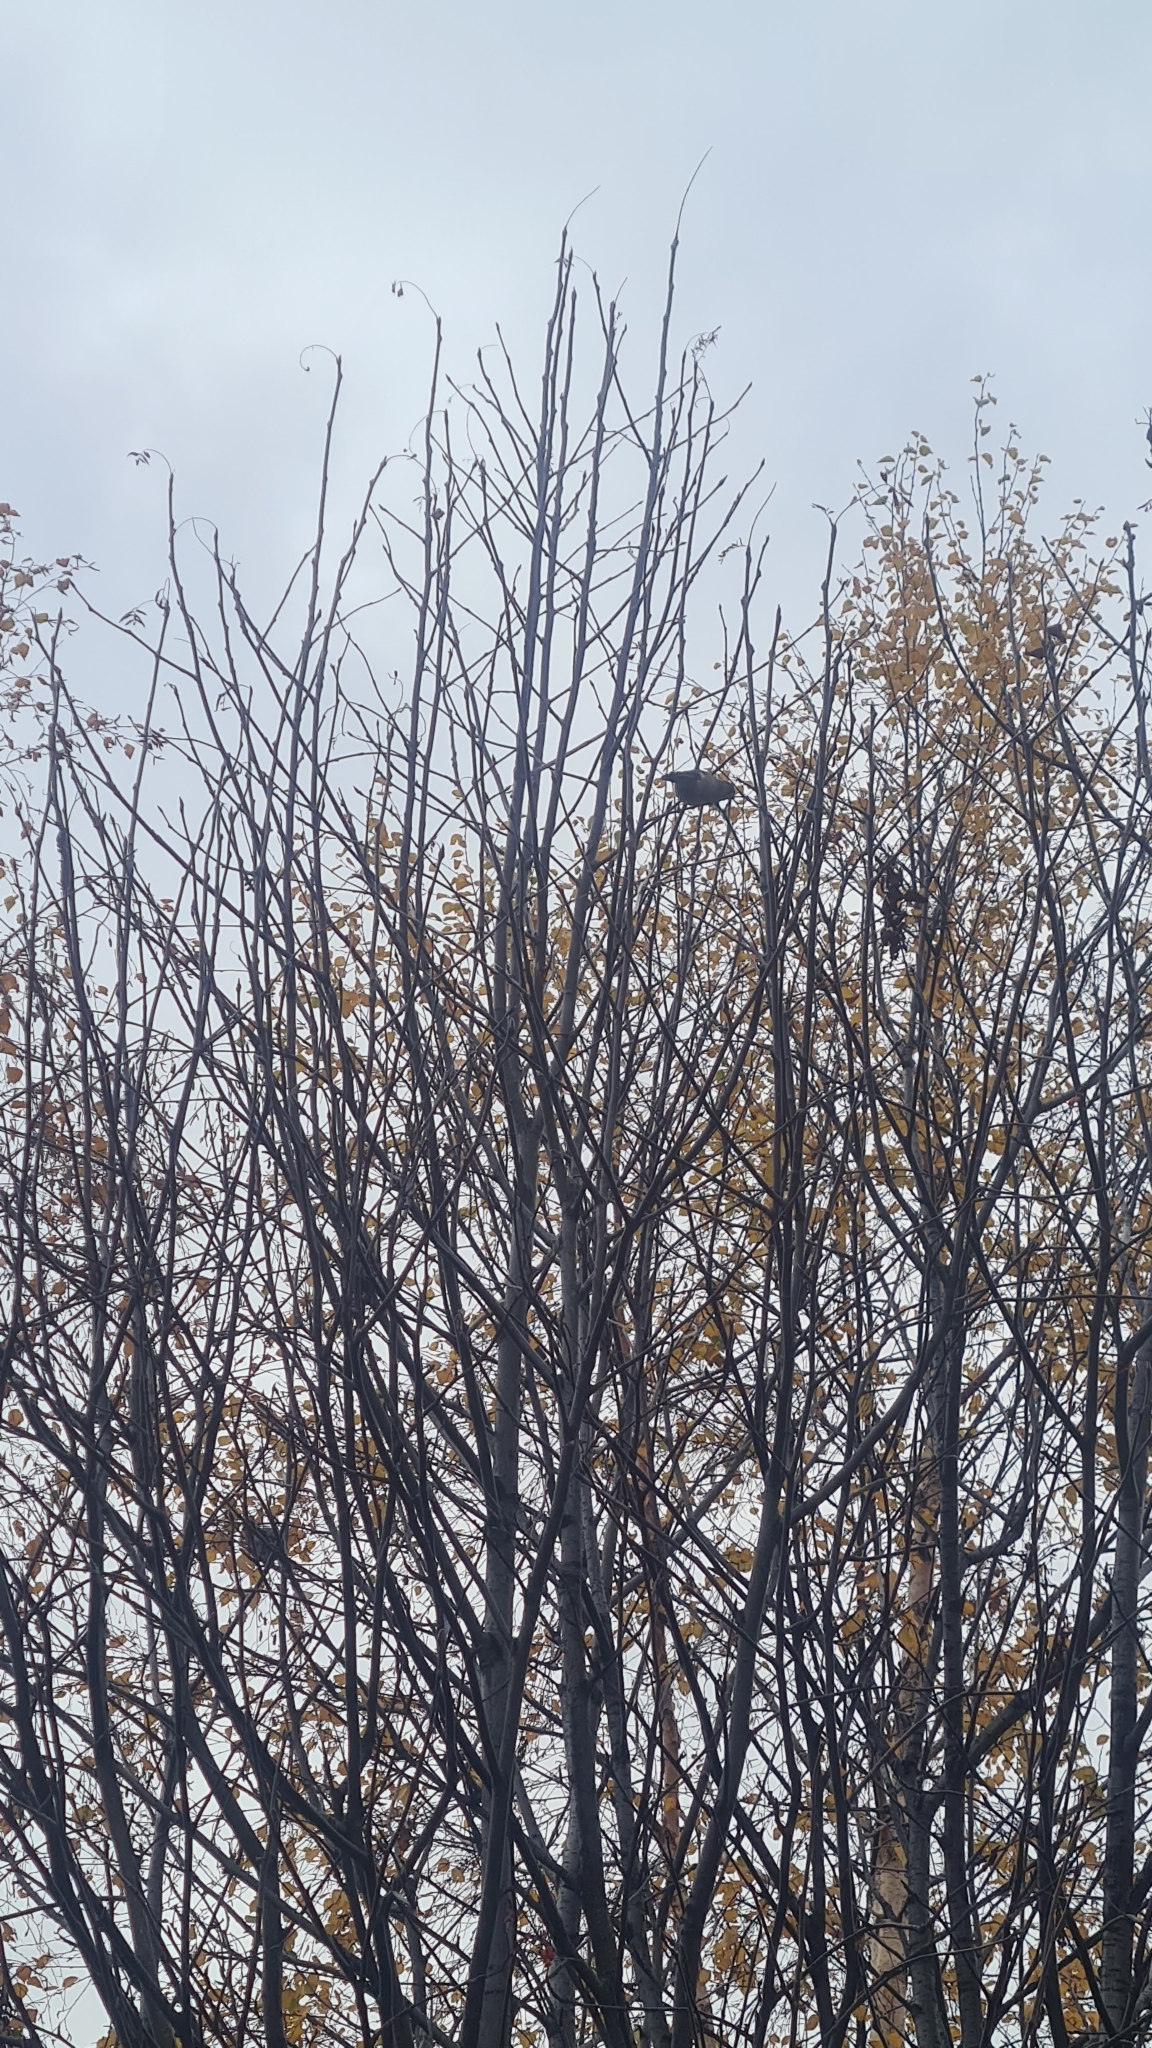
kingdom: Animalia
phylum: Chordata
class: Aves
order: Passeriformes
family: Fringillidae
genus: Pyrrhula
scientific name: Pyrrhula pyrrhula
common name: Eurasian bullfinch
